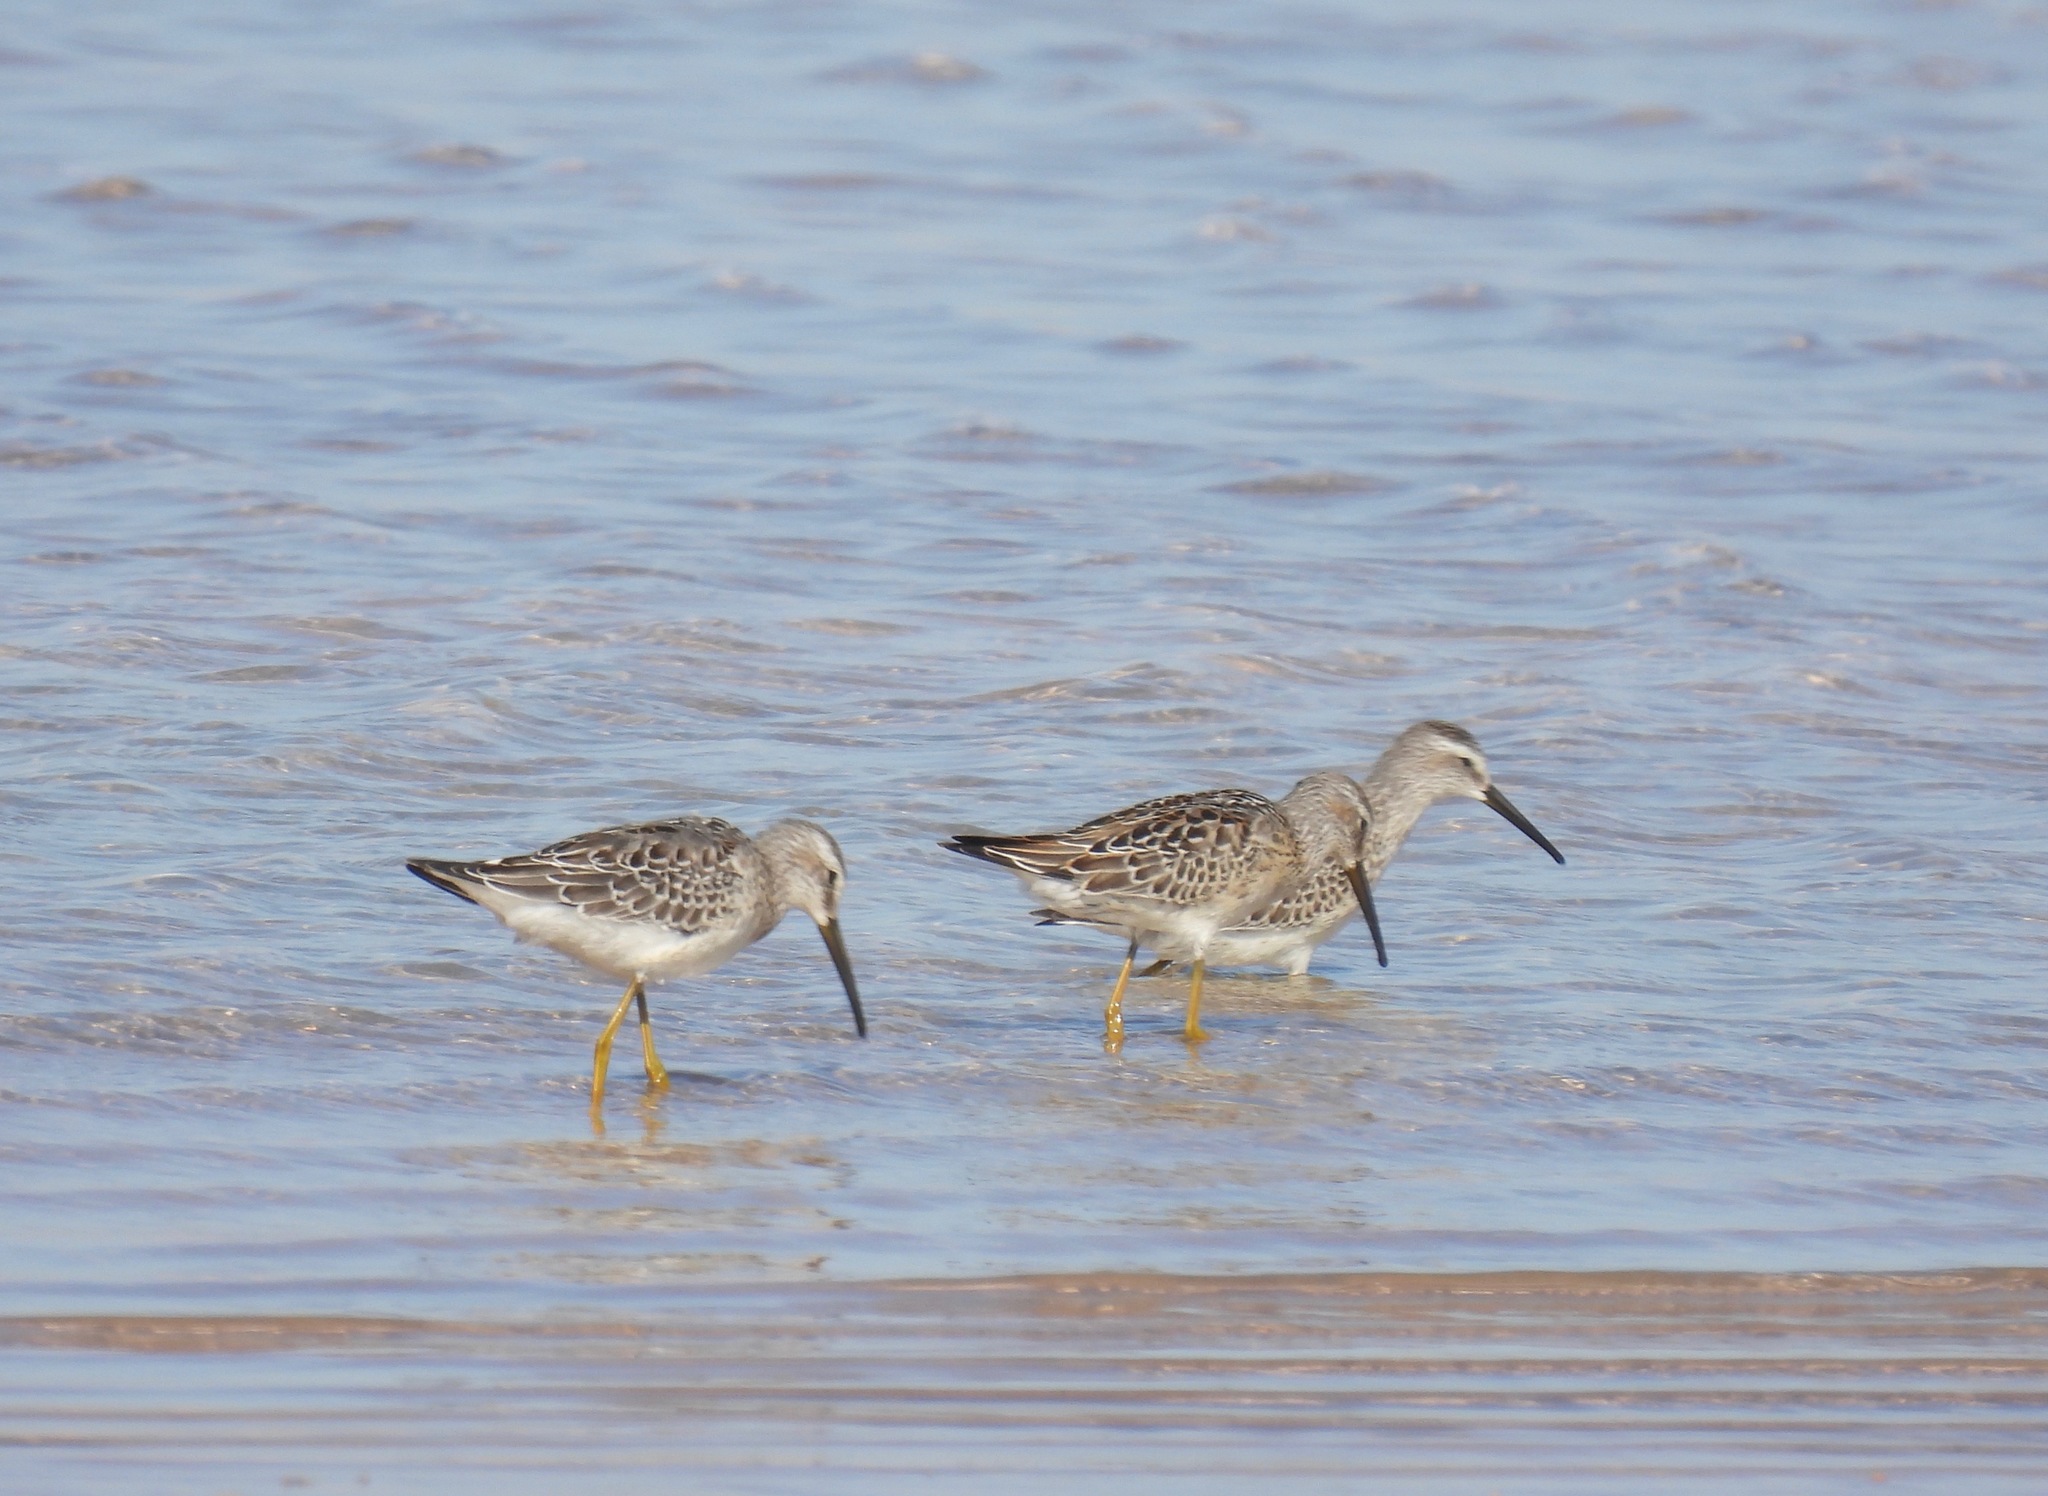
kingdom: Animalia
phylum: Chordata
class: Aves
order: Charadriiformes
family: Scolopacidae
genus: Calidris
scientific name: Calidris himantopus
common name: Stilt sandpiper
